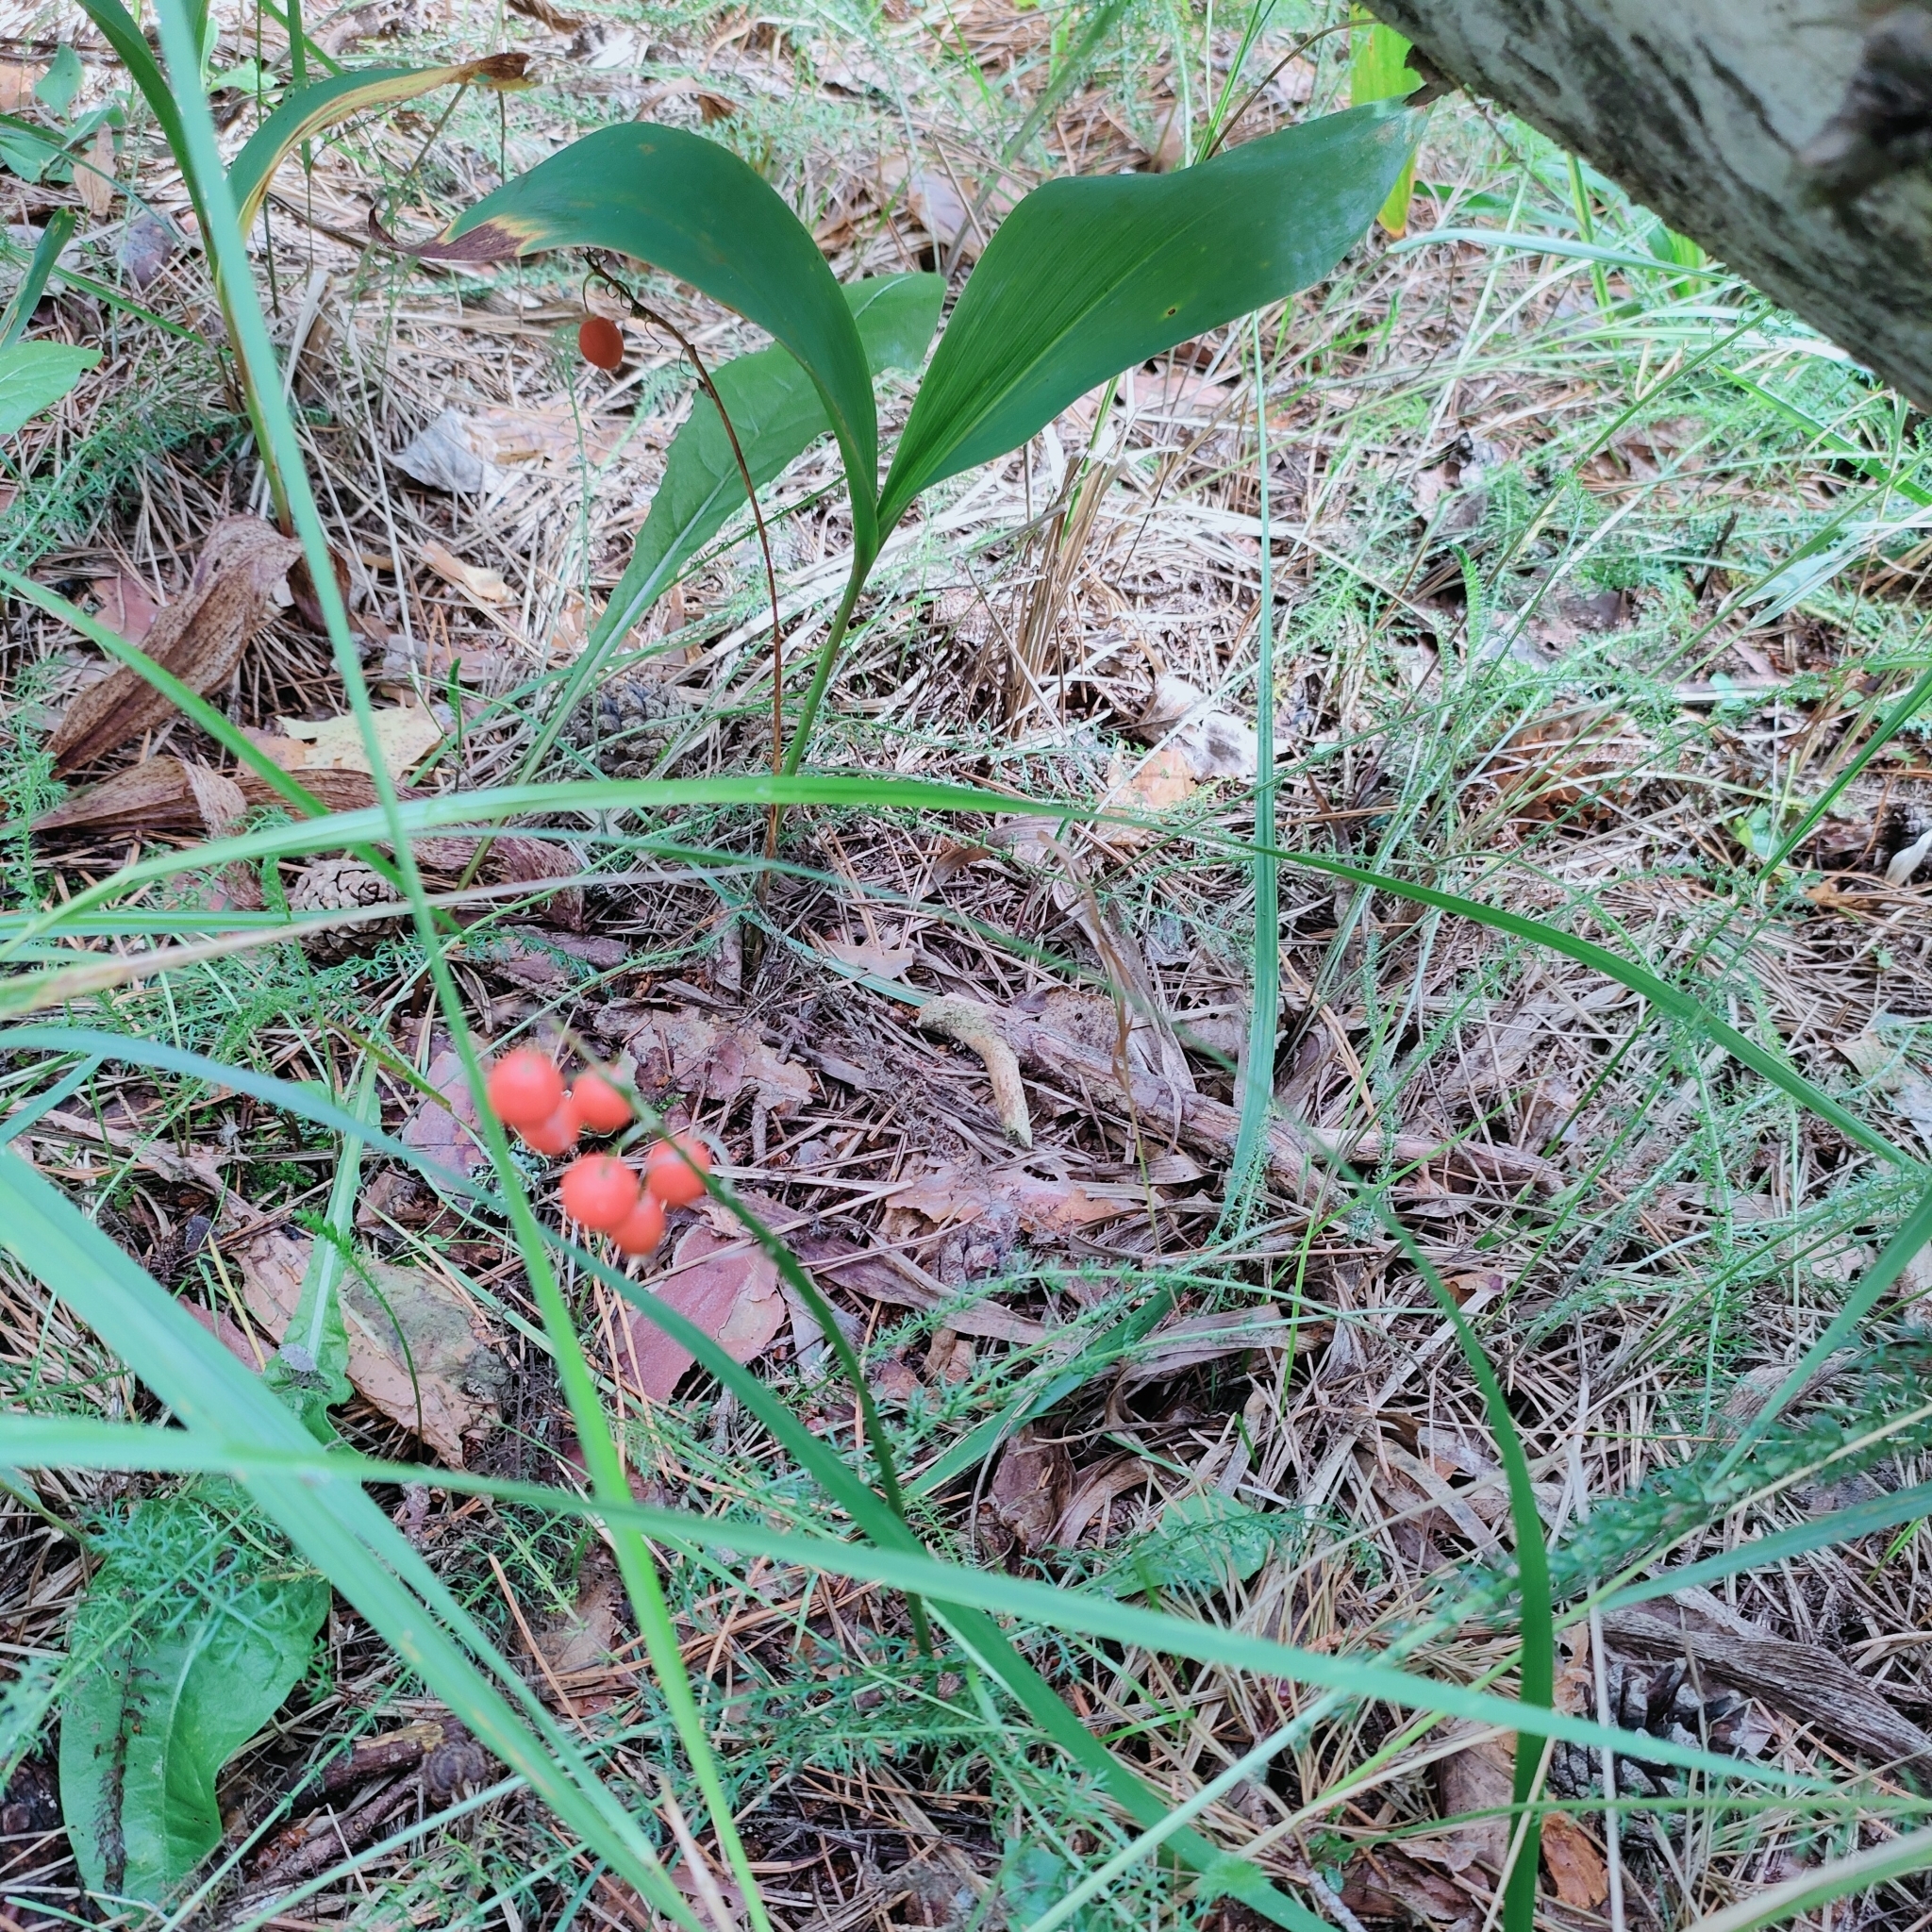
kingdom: Plantae
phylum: Tracheophyta
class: Liliopsida
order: Asparagales
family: Asparagaceae
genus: Convallaria
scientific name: Convallaria majalis
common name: Lily-of-the-valley
